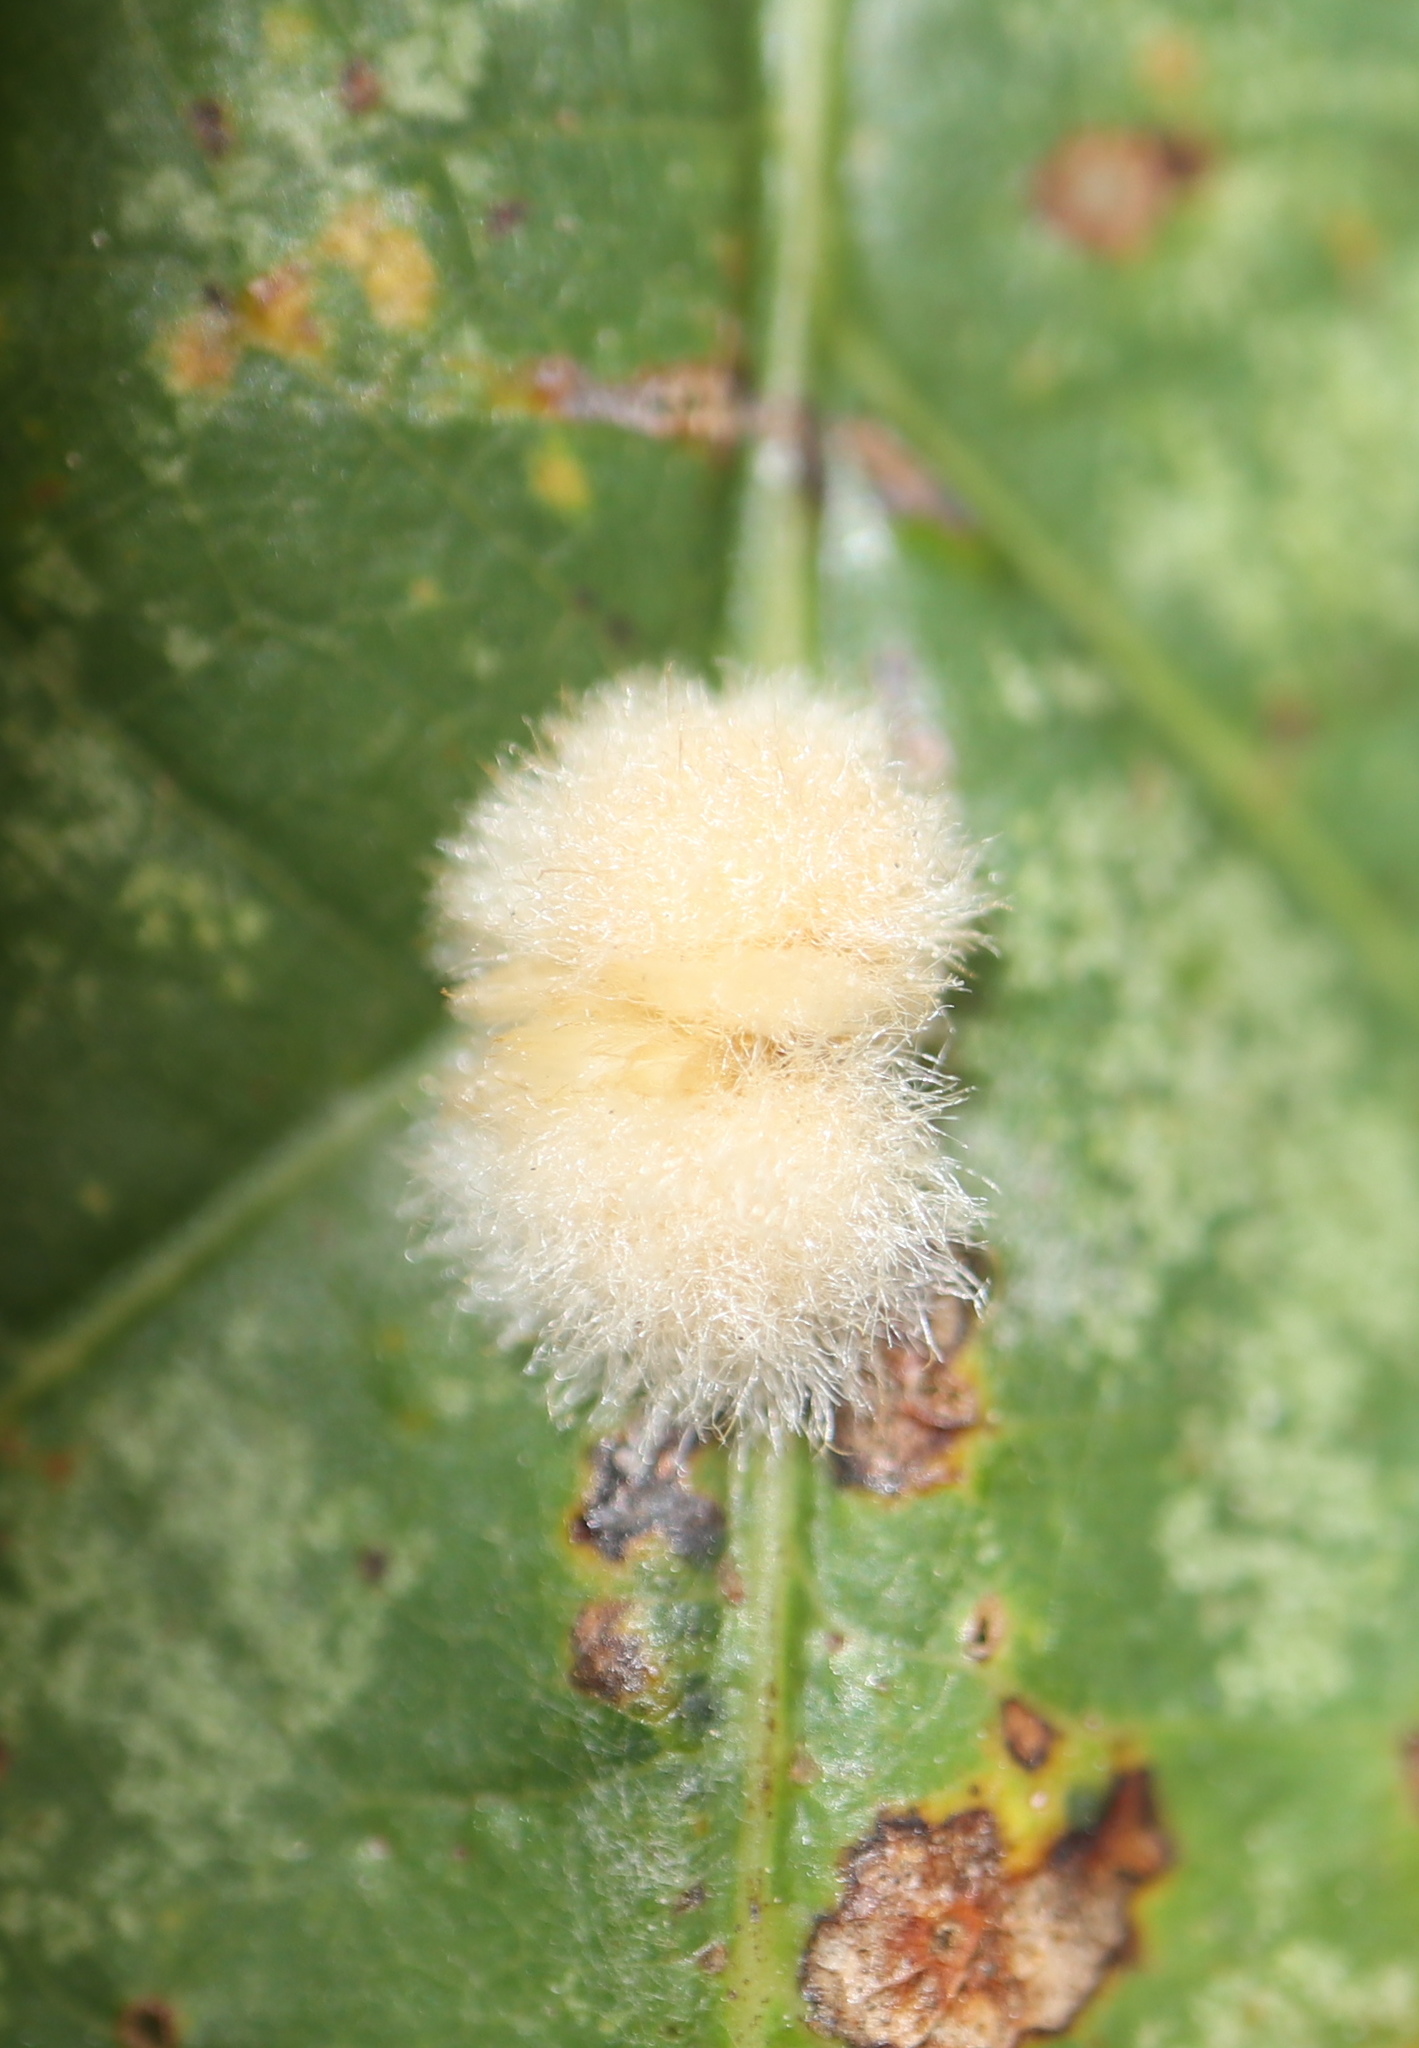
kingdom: Animalia
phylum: Arthropoda
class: Insecta
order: Hymenoptera
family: Cynipidae
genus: Andricus
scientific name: Andricus quercusflocci
